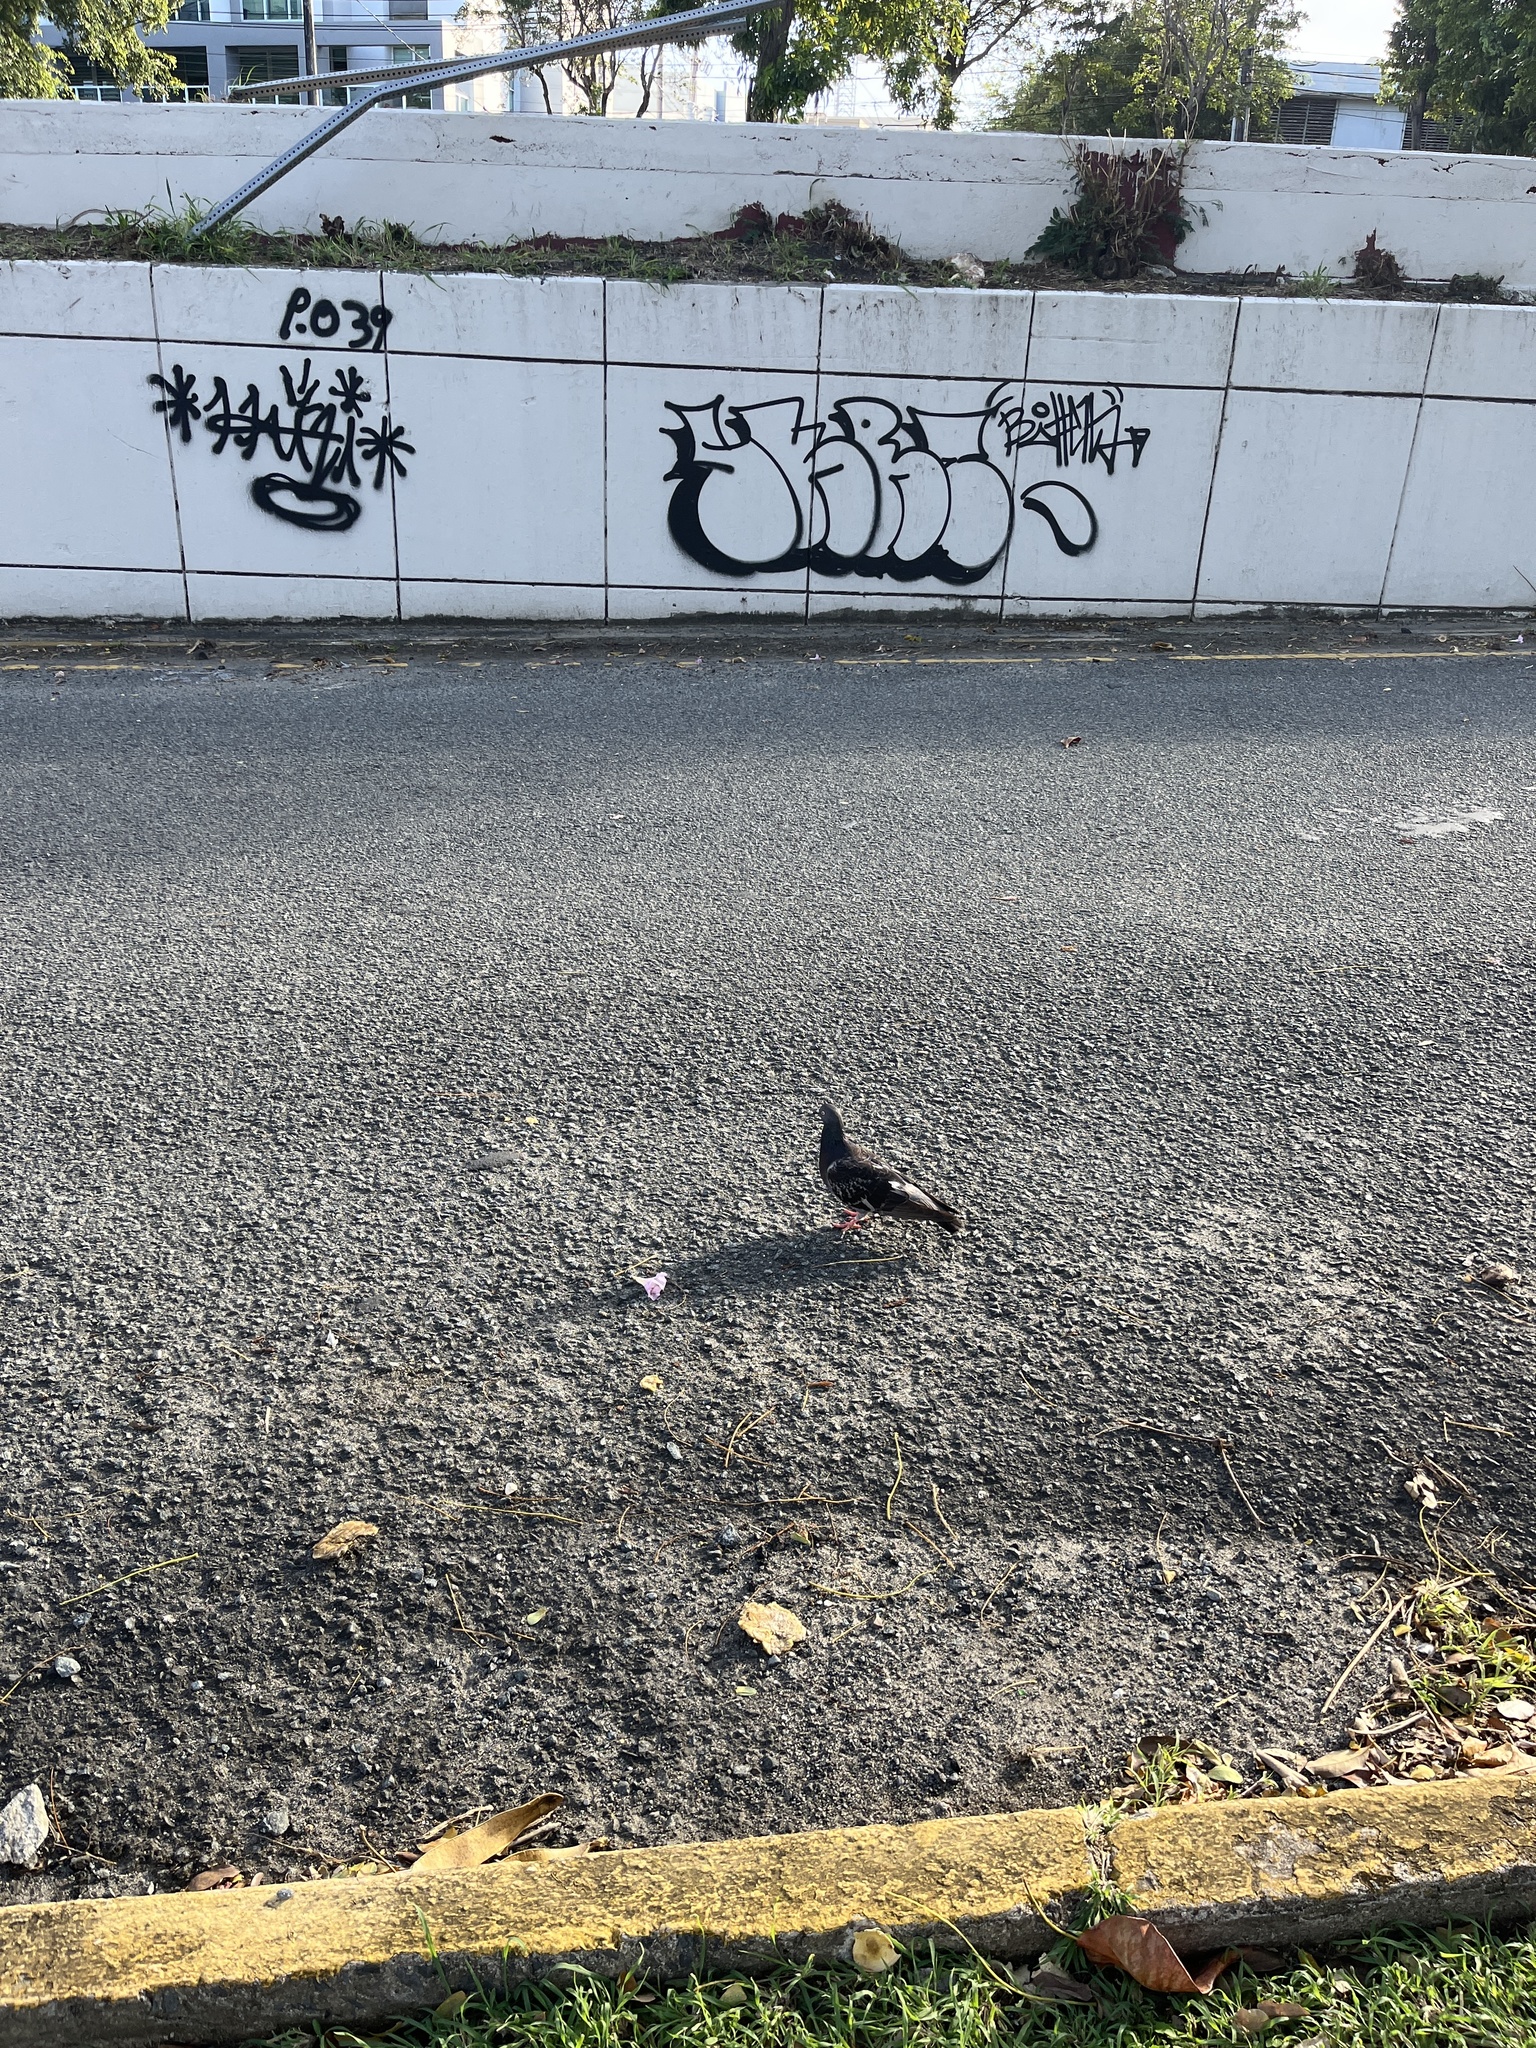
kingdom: Animalia
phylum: Chordata
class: Aves
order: Columbiformes
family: Columbidae
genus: Columba
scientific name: Columba livia
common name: Rock pigeon
